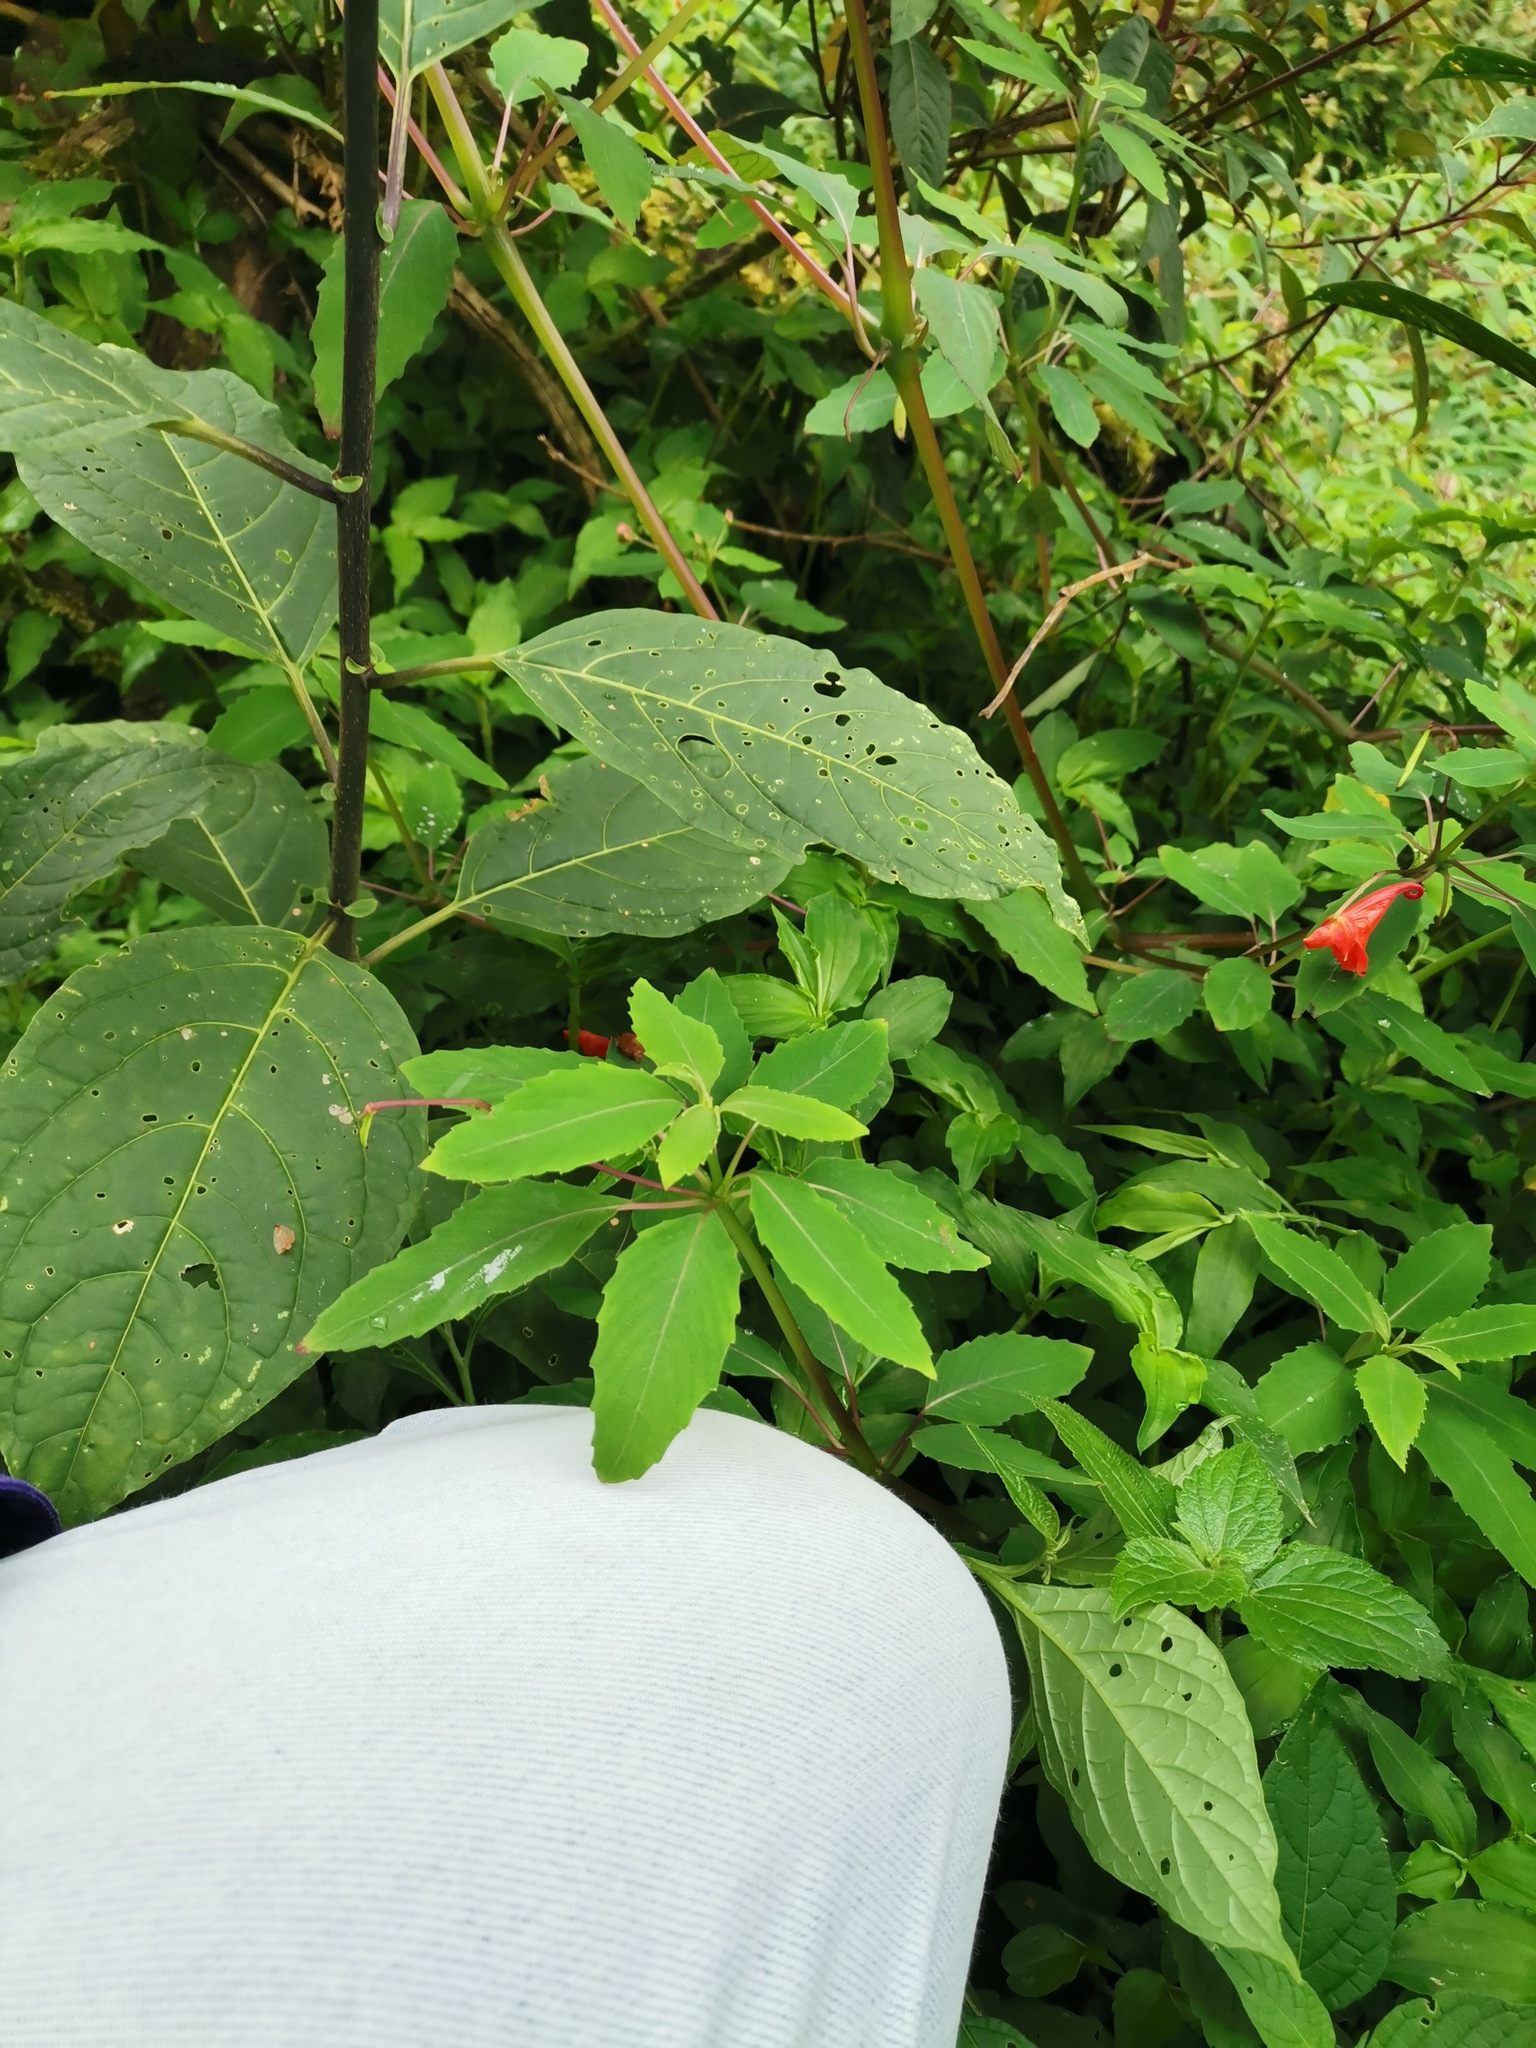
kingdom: Plantae
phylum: Tracheophyta
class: Magnoliopsida
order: Ericales
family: Balsaminaceae
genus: Impatiens
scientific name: Impatiens turrialbana
